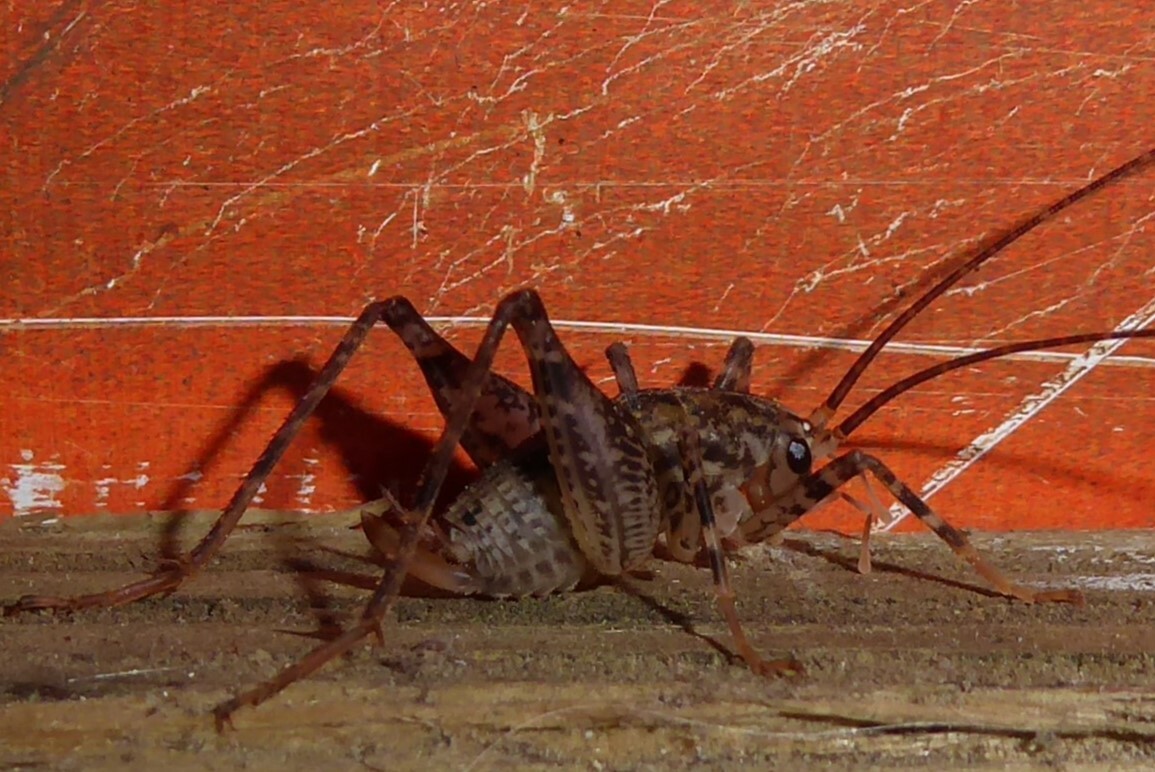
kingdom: Animalia
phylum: Arthropoda
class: Insecta
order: Orthoptera
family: Rhaphidophoridae
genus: Pleioplectron
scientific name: Pleioplectron simplex
